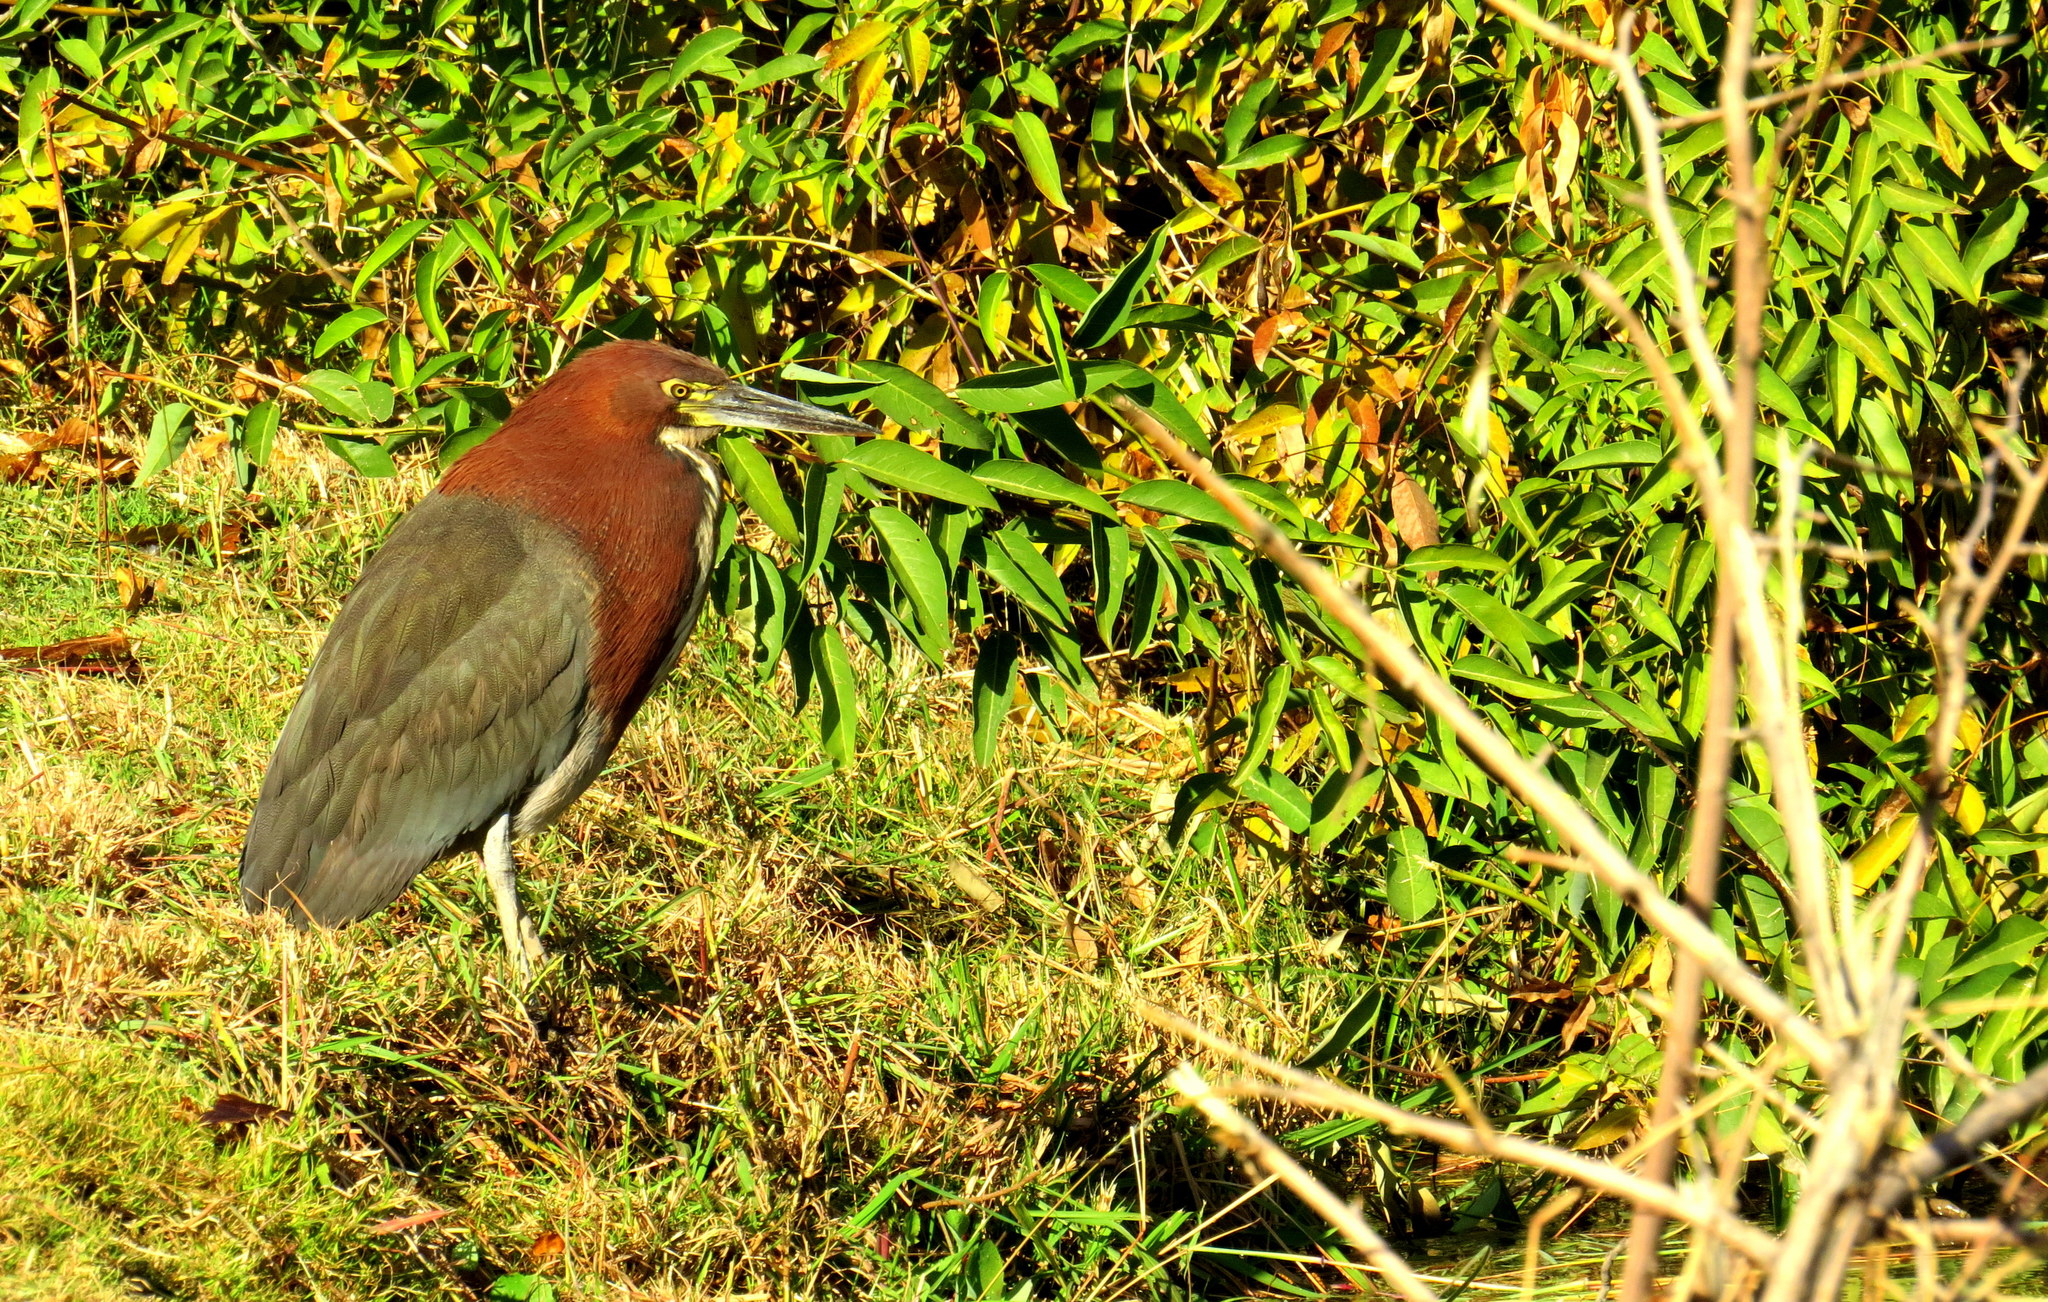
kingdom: Animalia
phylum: Chordata
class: Aves
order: Pelecaniformes
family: Ardeidae
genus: Tigrisoma
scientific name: Tigrisoma lineatum
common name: Rufescent tiger-heron
